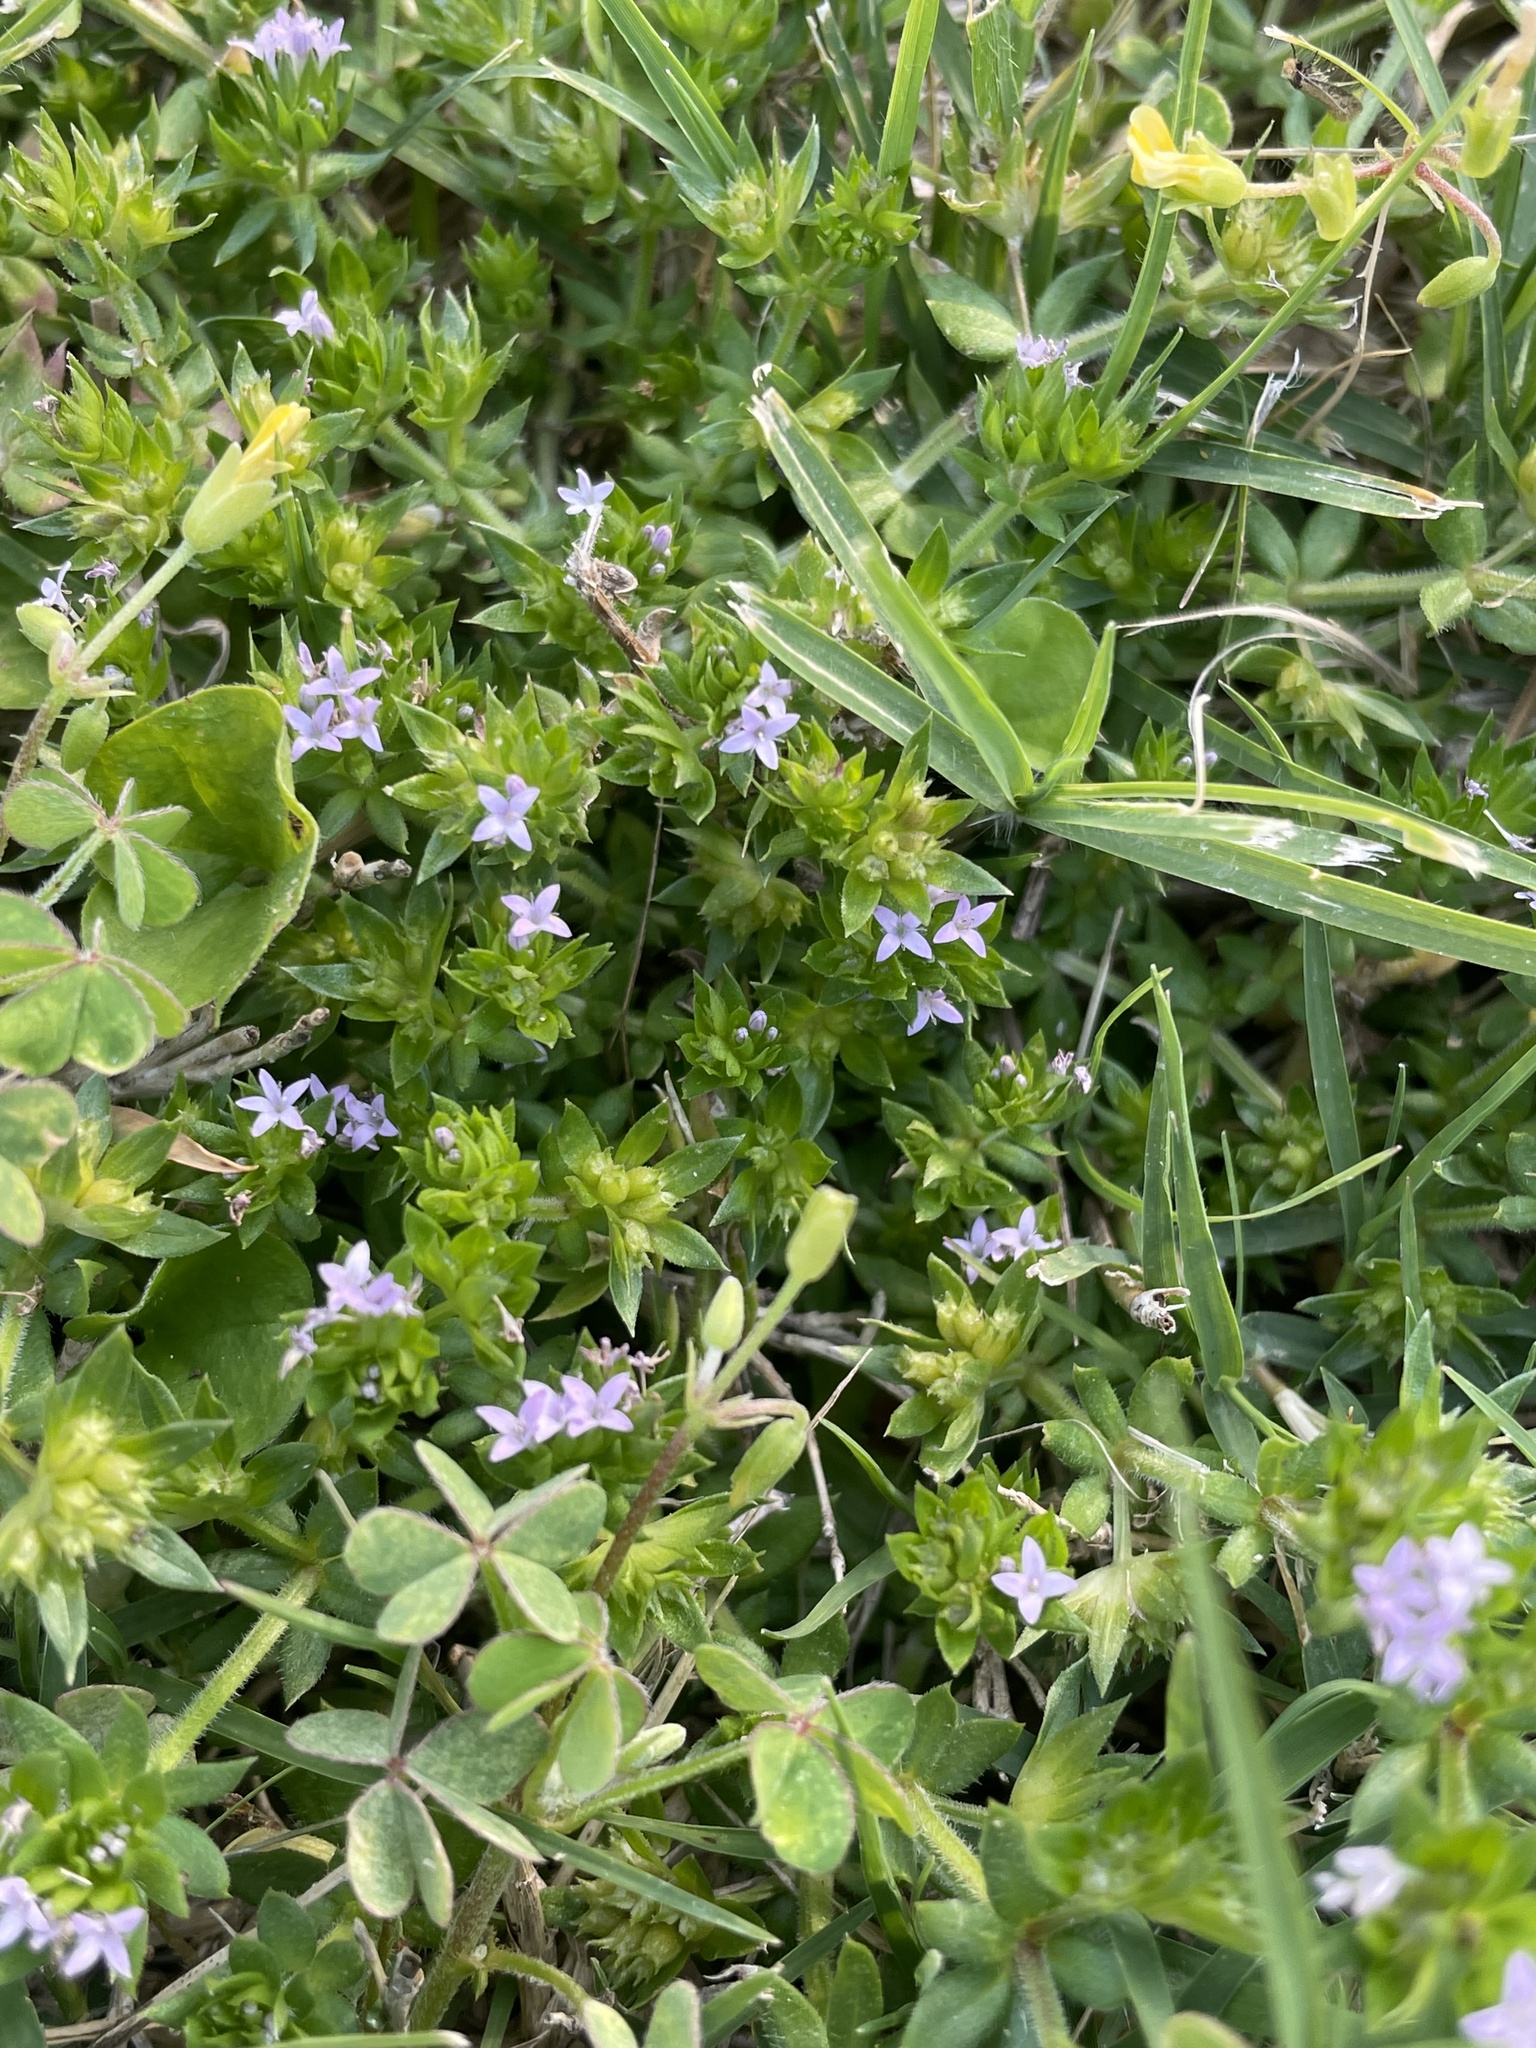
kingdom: Plantae
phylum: Tracheophyta
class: Magnoliopsida
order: Gentianales
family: Rubiaceae
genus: Sherardia
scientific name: Sherardia arvensis
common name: Field madder
